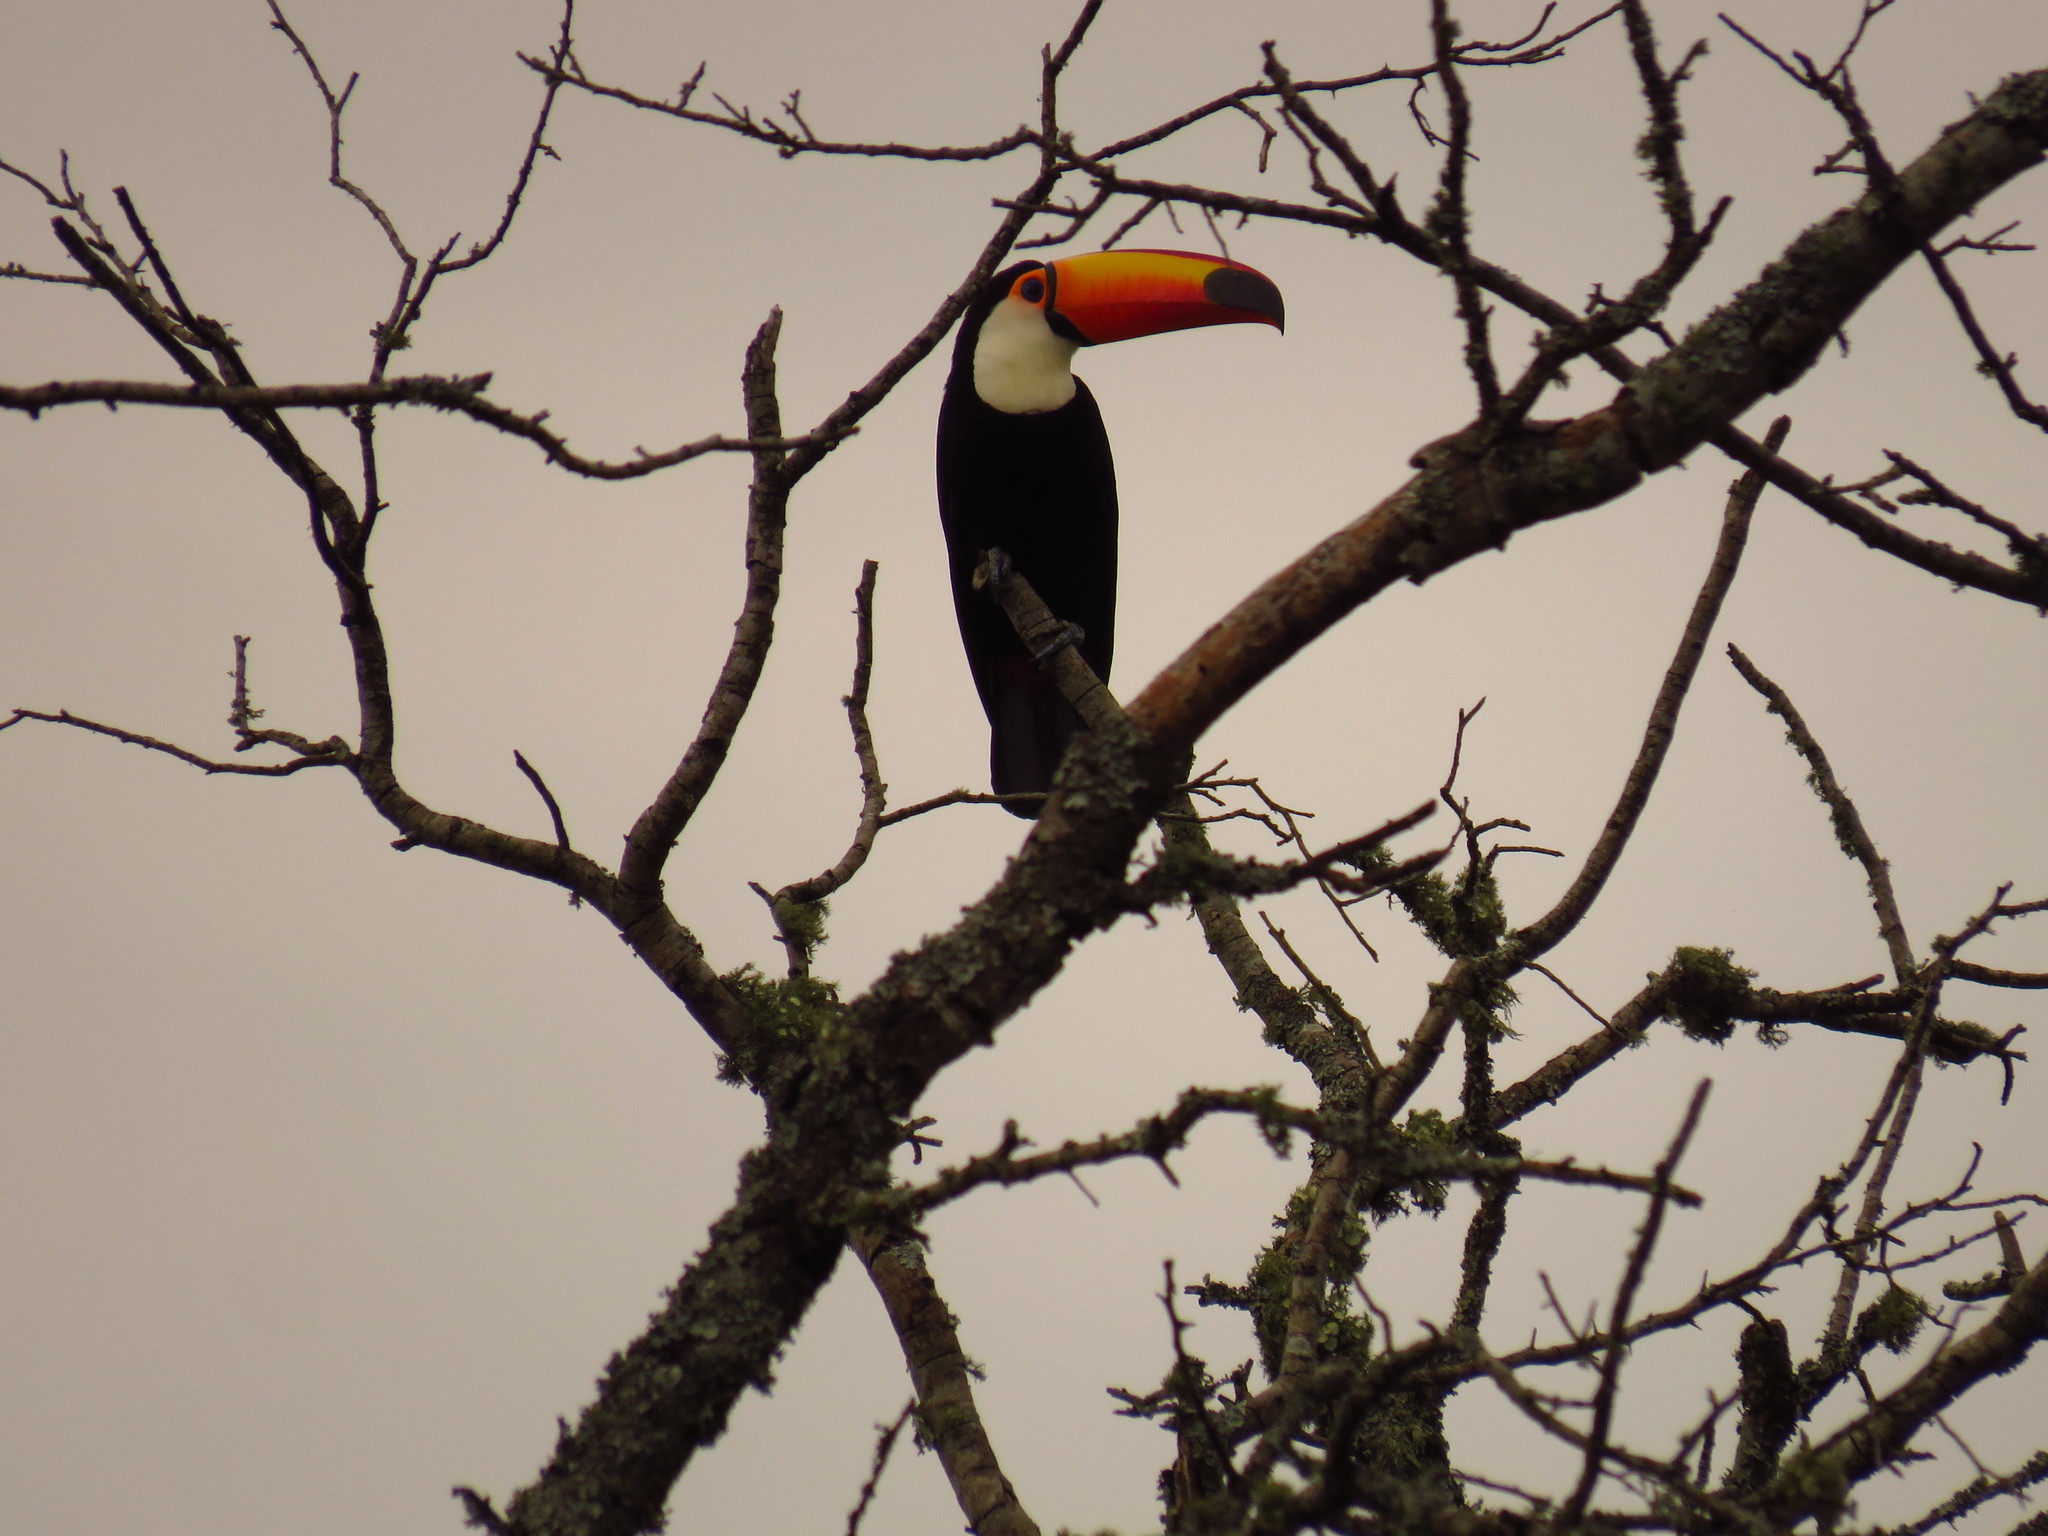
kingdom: Animalia
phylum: Chordata
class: Aves
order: Piciformes
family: Ramphastidae
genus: Ramphastos
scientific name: Ramphastos toco
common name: Toco toucan
